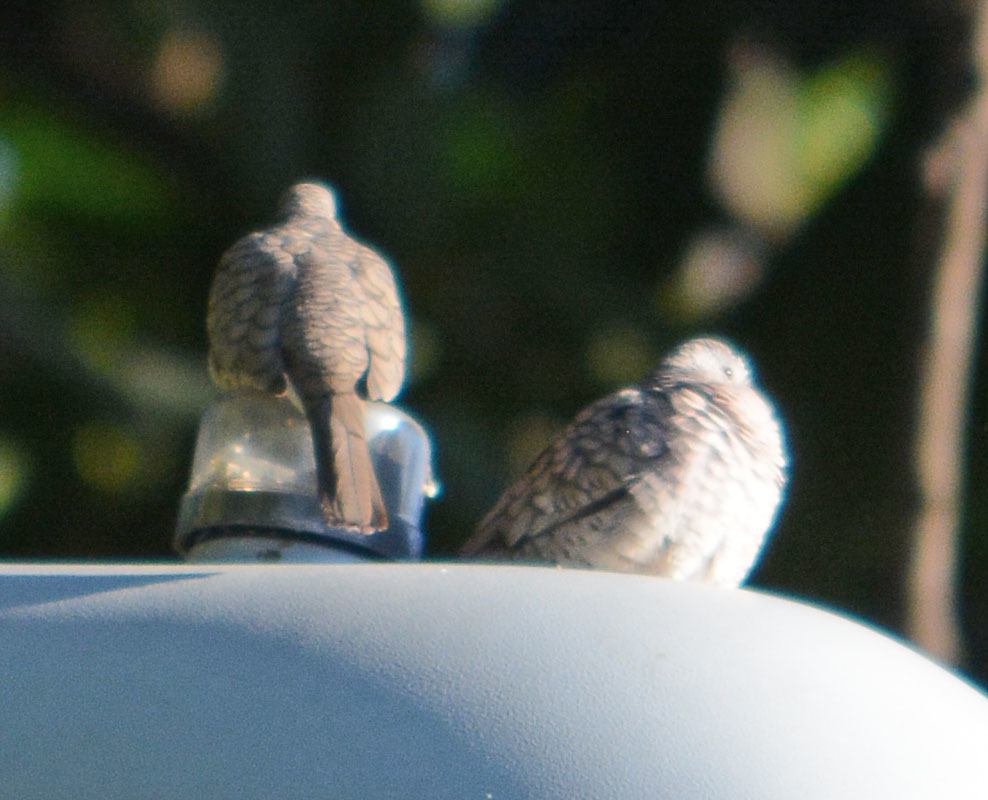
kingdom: Animalia
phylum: Chordata
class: Aves
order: Columbiformes
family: Columbidae
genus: Columbina
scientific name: Columbina inca
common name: Inca dove
